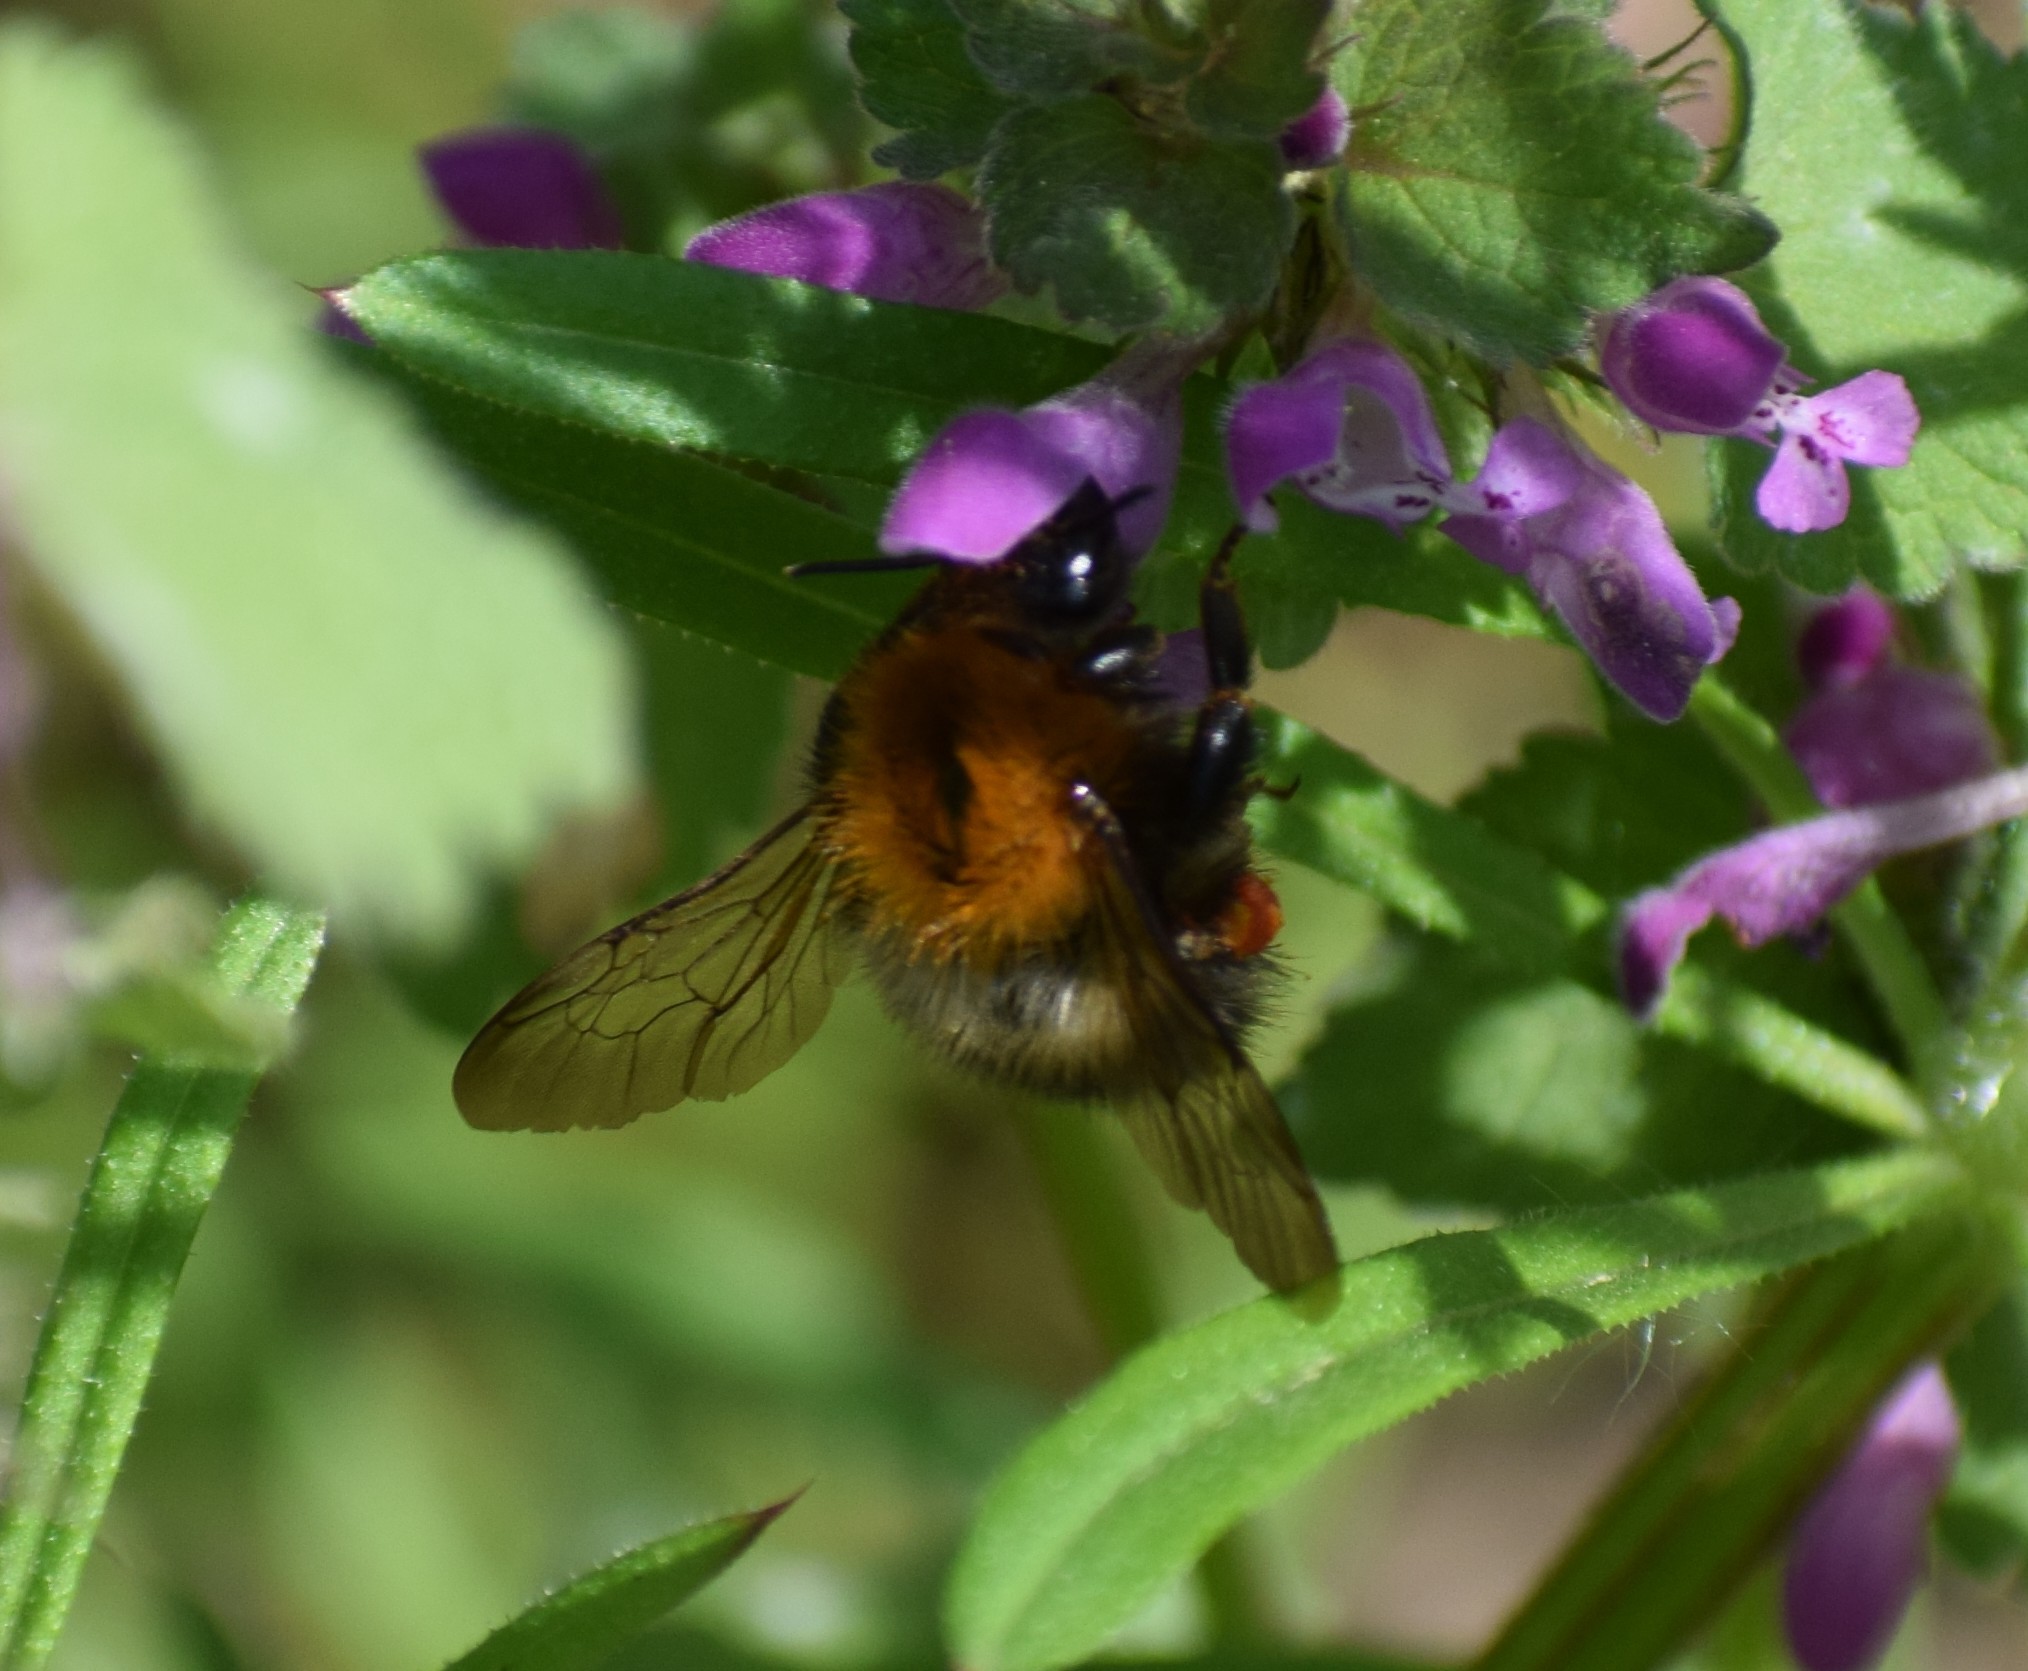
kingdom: Animalia
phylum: Arthropoda
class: Insecta
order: Hymenoptera
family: Apidae
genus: Bombus
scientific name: Bombus pascuorum
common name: Common carder bee
